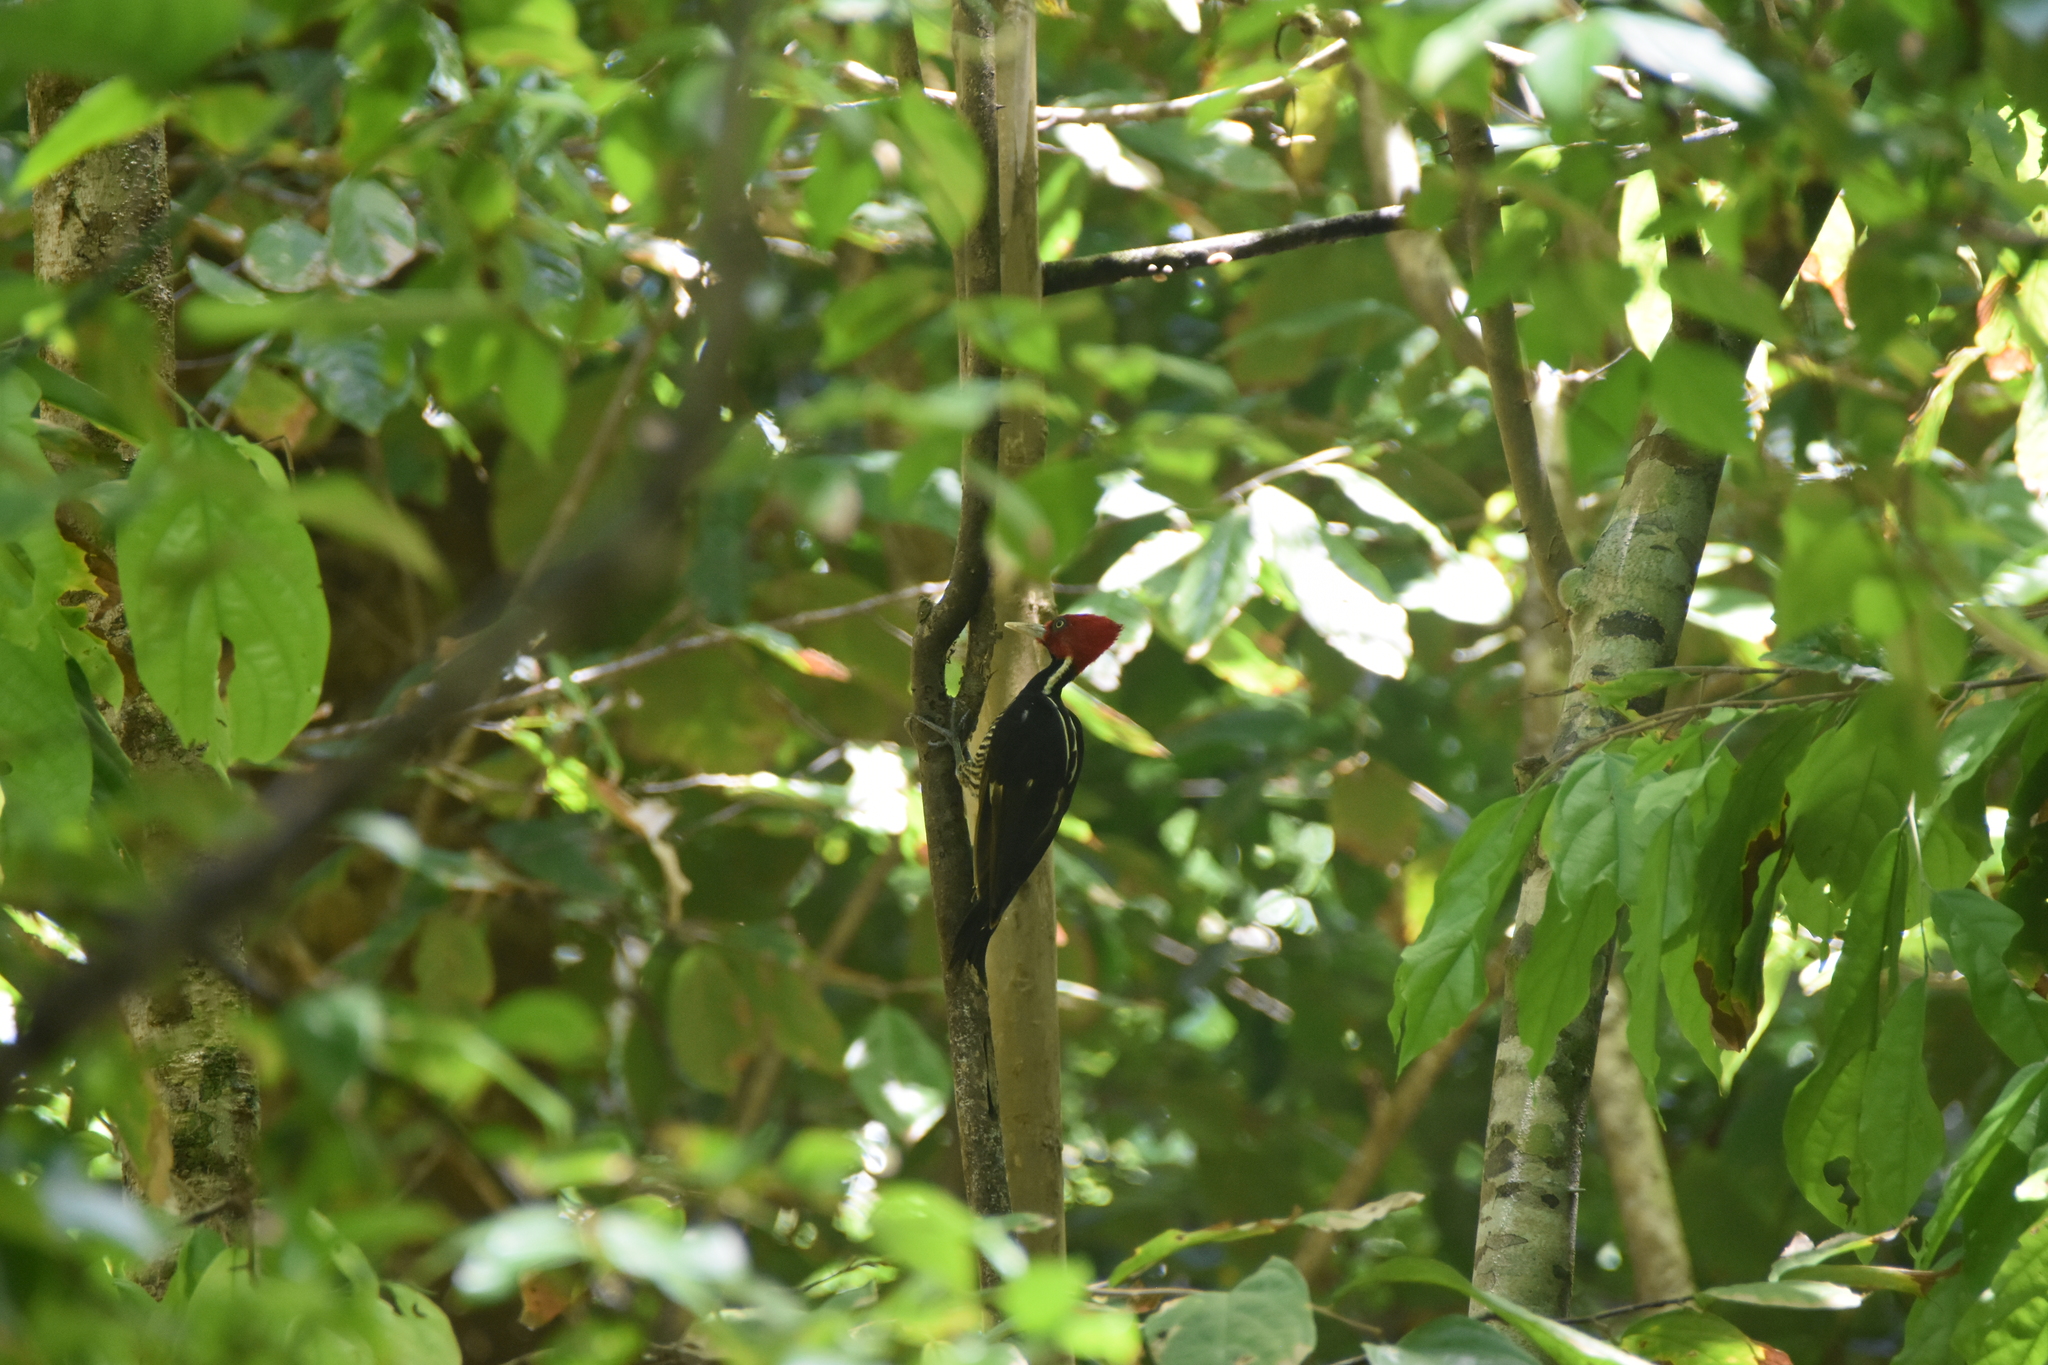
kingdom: Animalia
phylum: Chordata
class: Aves
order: Piciformes
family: Picidae
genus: Campephilus
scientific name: Campephilus guatemalensis
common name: Pale-billed woodpecker
